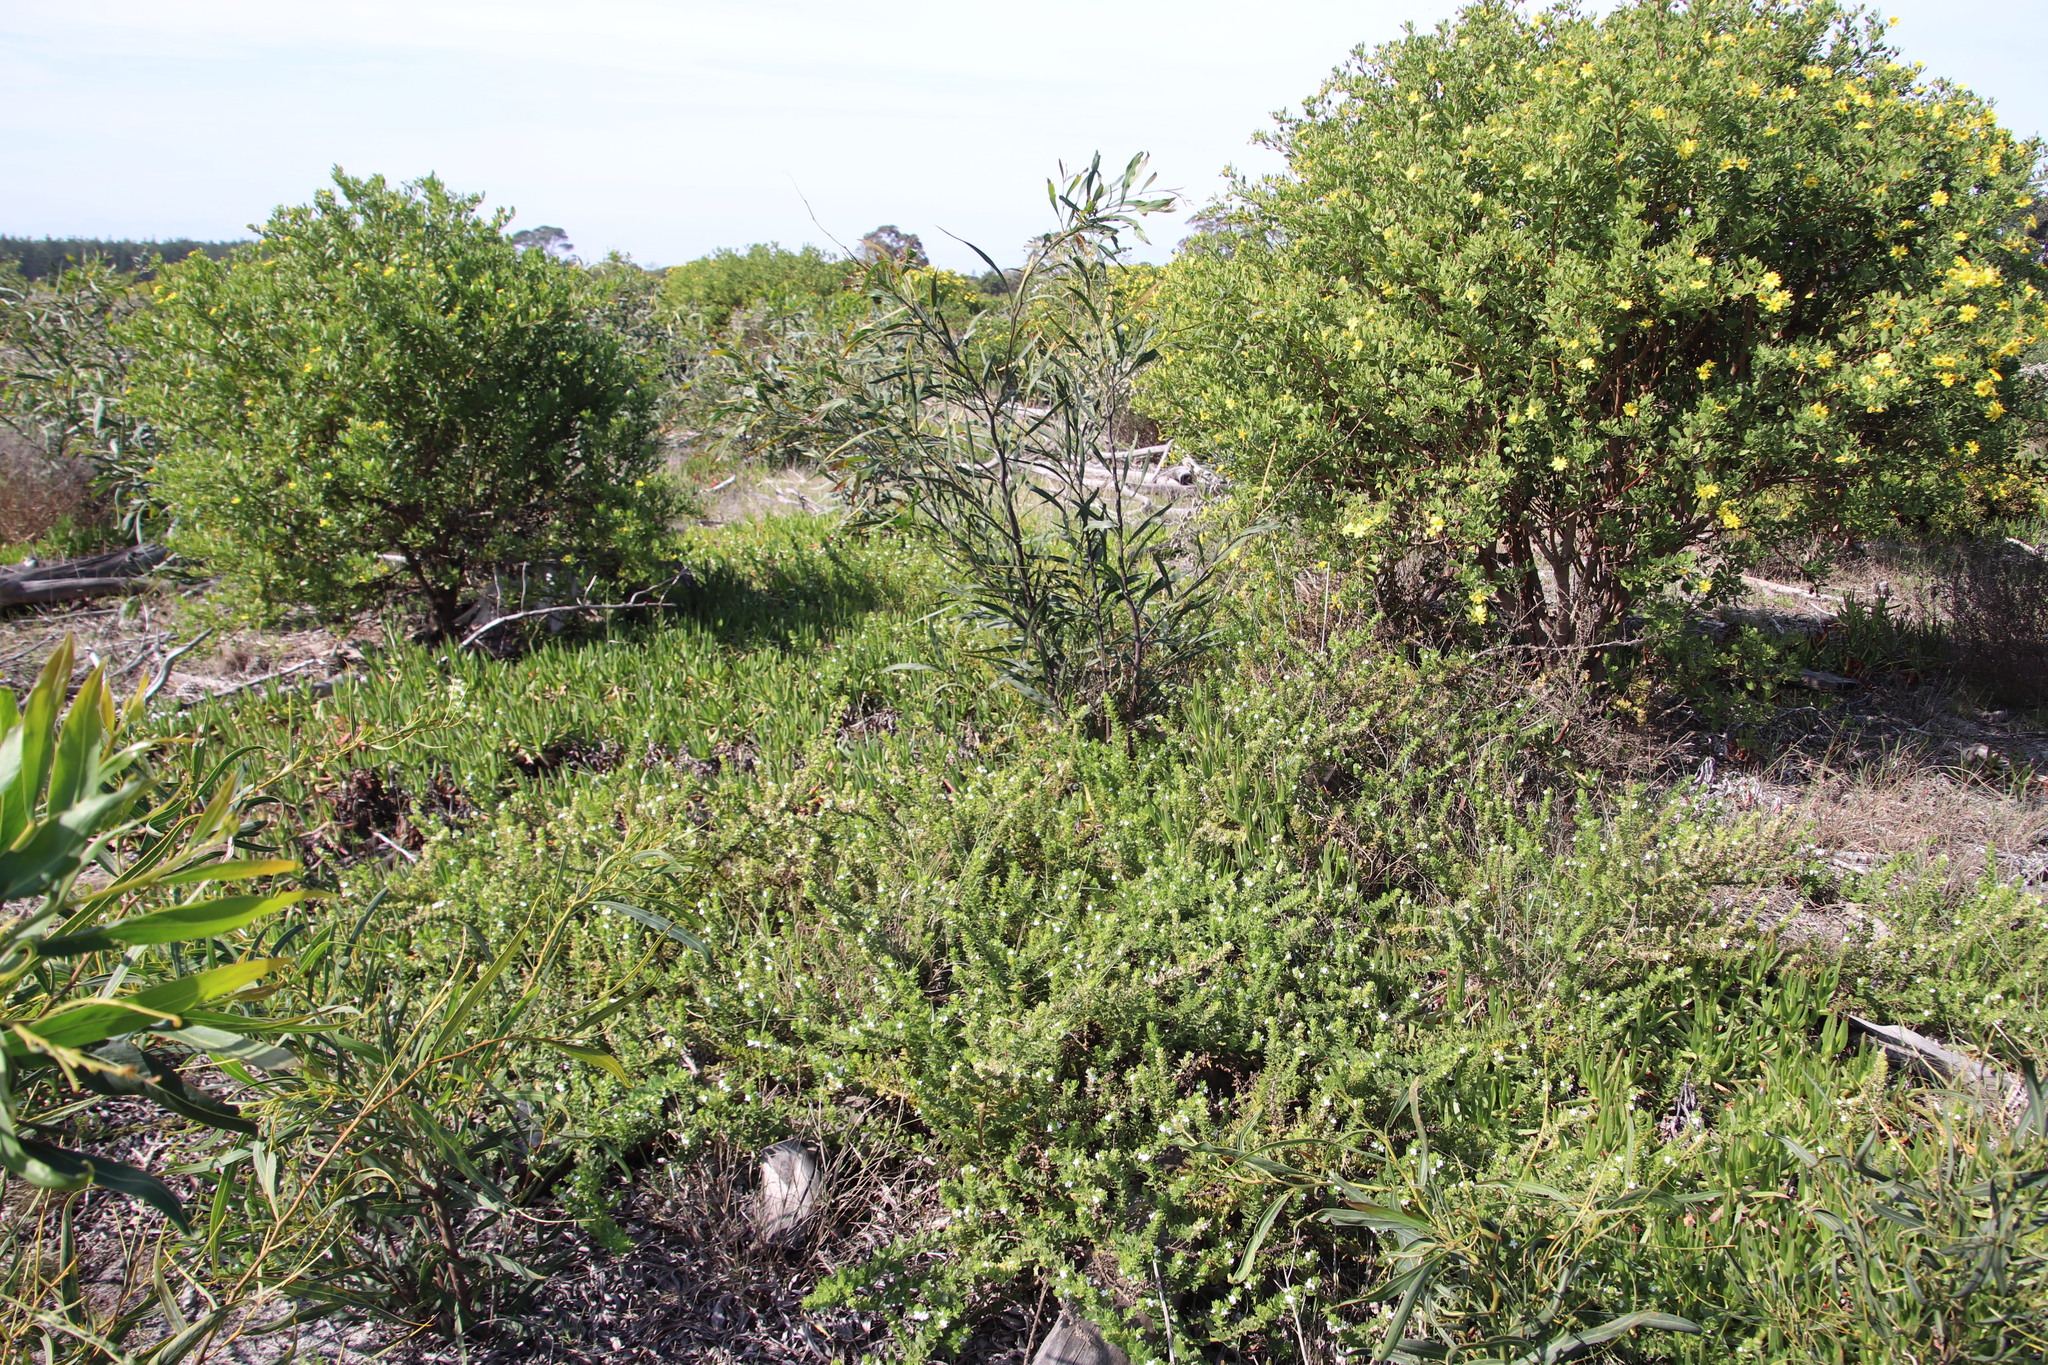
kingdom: Plantae
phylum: Tracheophyta
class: Magnoliopsida
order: Fabales
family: Fabaceae
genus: Acacia
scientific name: Acacia saligna
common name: Orange wattle
